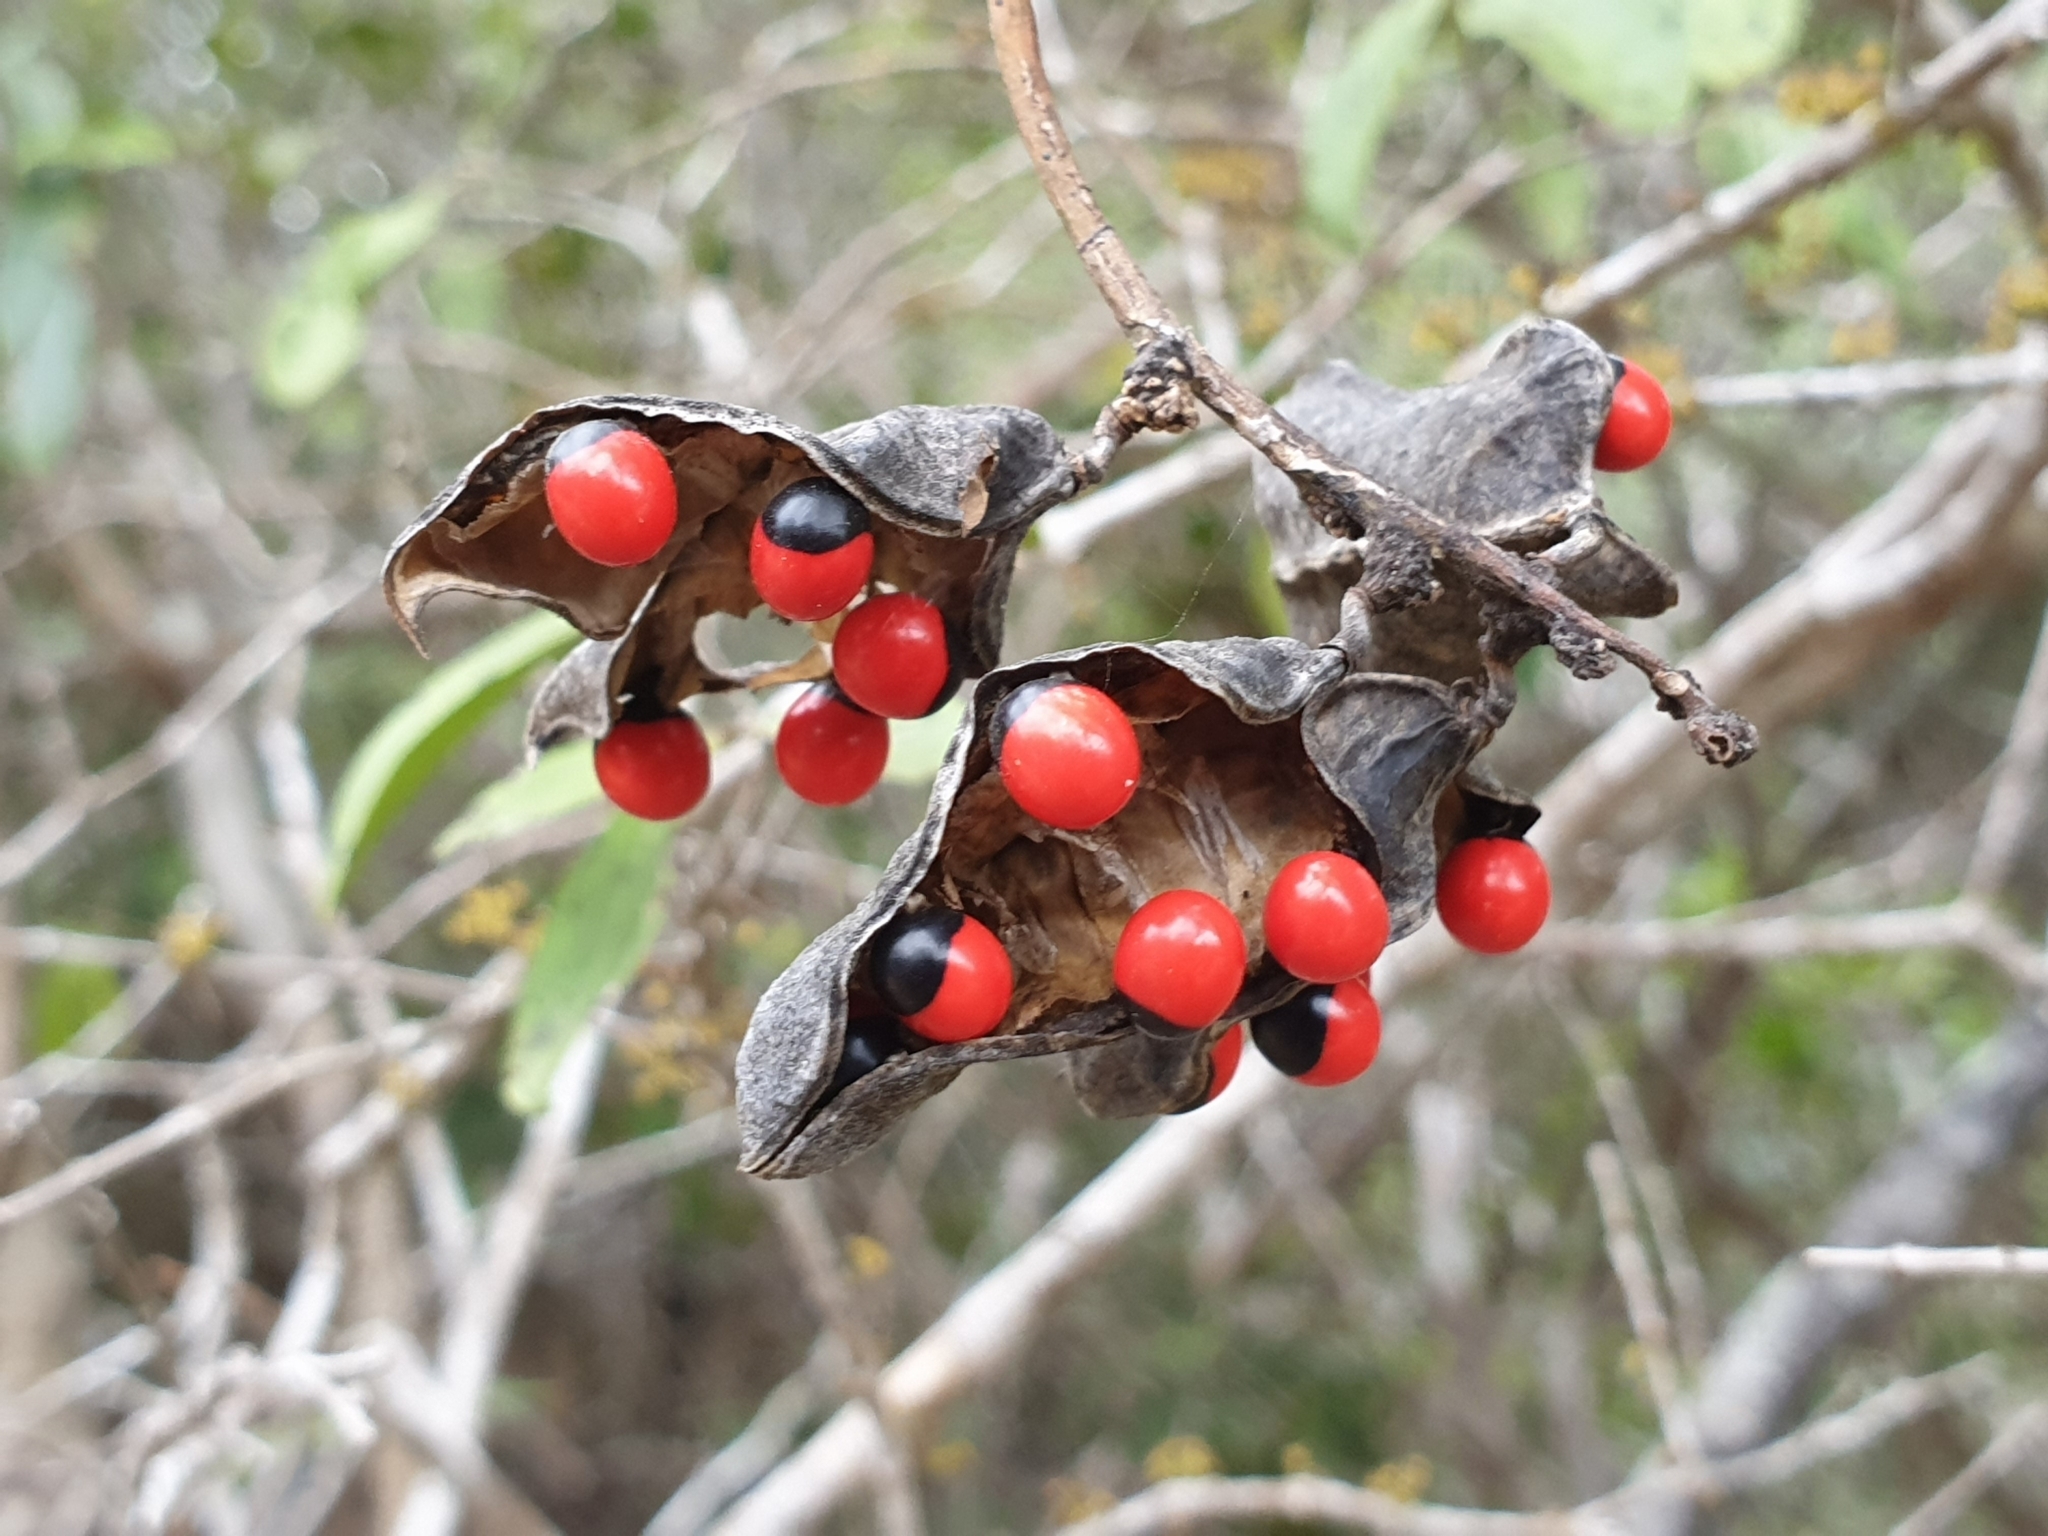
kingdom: Plantae
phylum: Tracheophyta
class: Magnoliopsida
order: Fabales
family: Fabaceae
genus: Abrus
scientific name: Abrus precatorius
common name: Rosarypea
